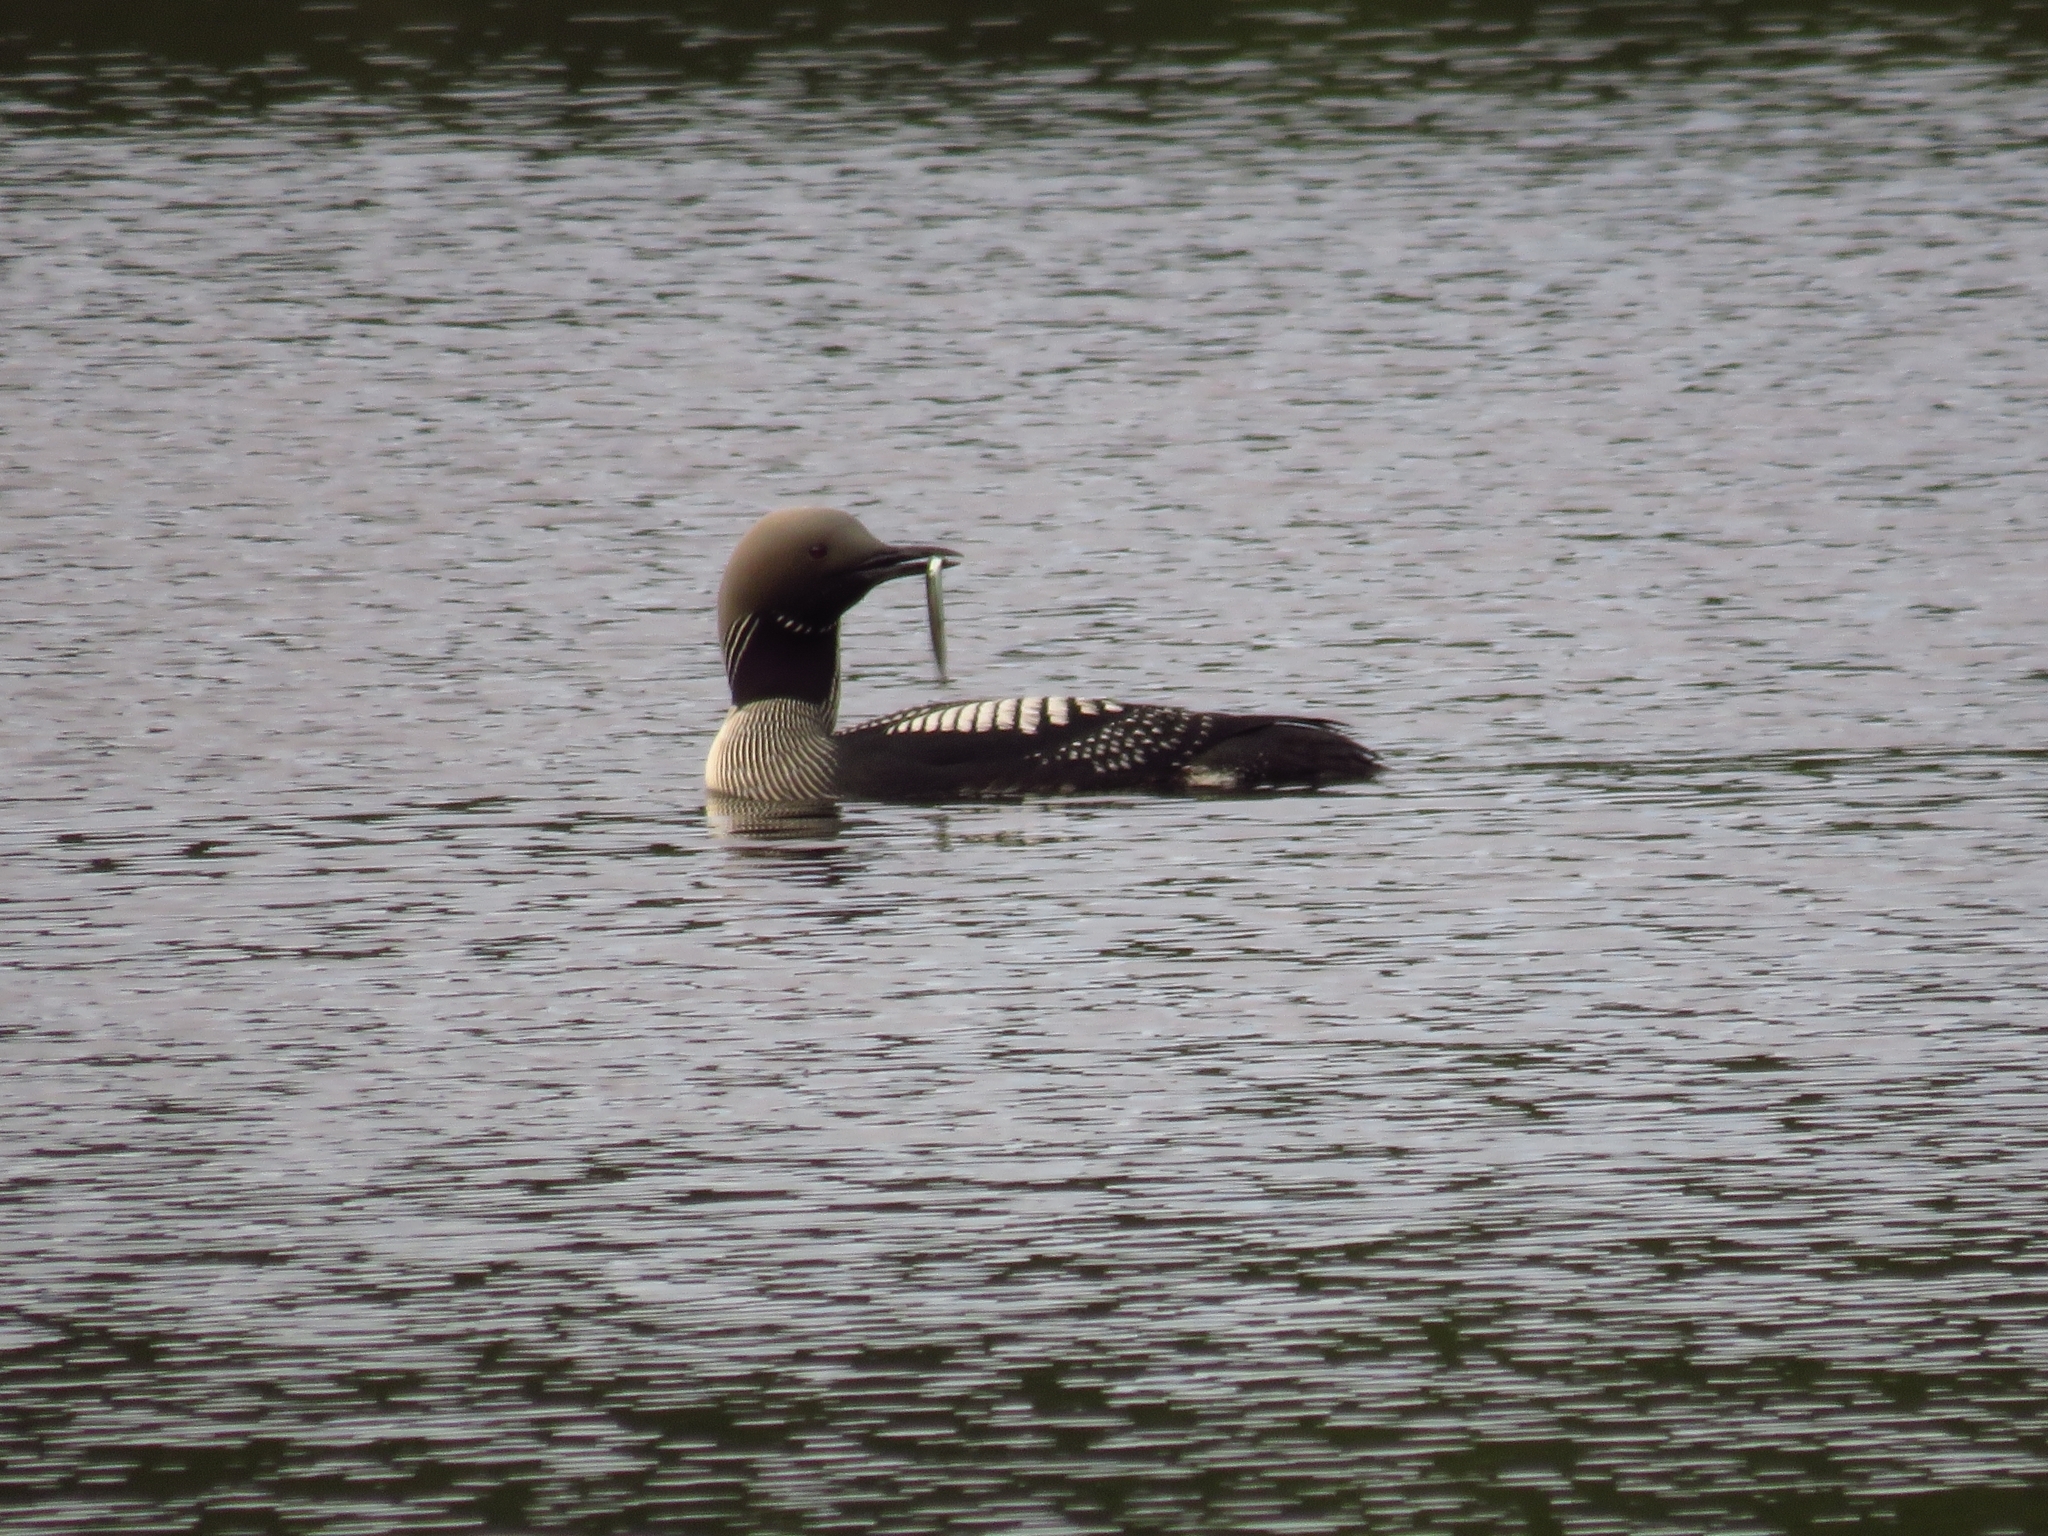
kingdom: Animalia
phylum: Chordata
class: Aves
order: Gaviiformes
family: Gaviidae
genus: Gavia
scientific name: Gavia arctica
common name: Black-throated loon
